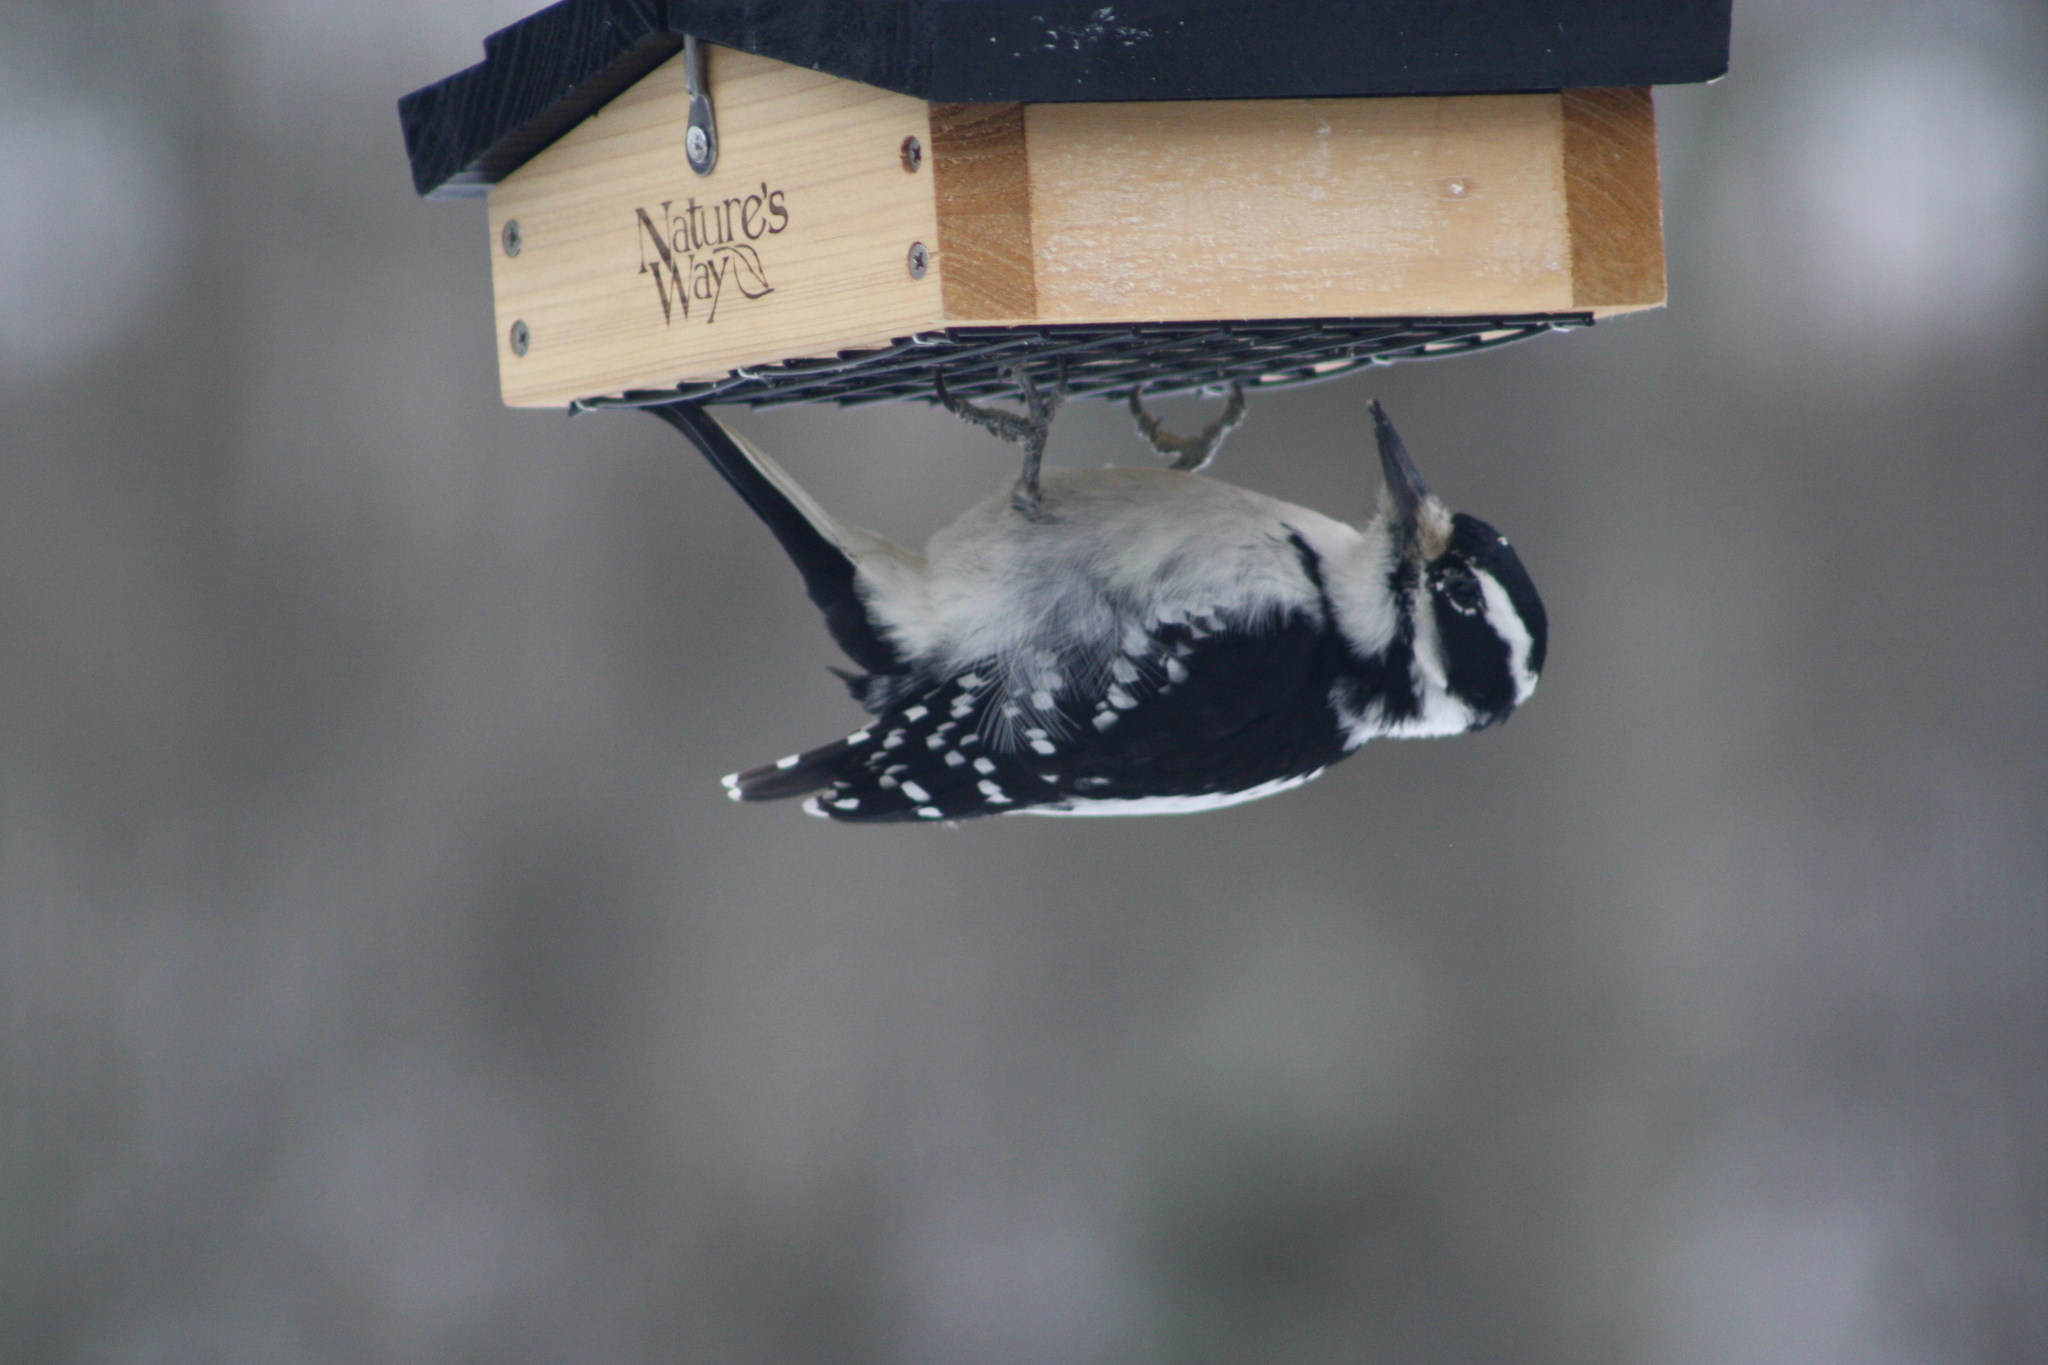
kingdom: Animalia
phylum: Chordata
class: Aves
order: Piciformes
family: Picidae
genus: Leuconotopicus
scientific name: Leuconotopicus villosus
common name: Hairy woodpecker
